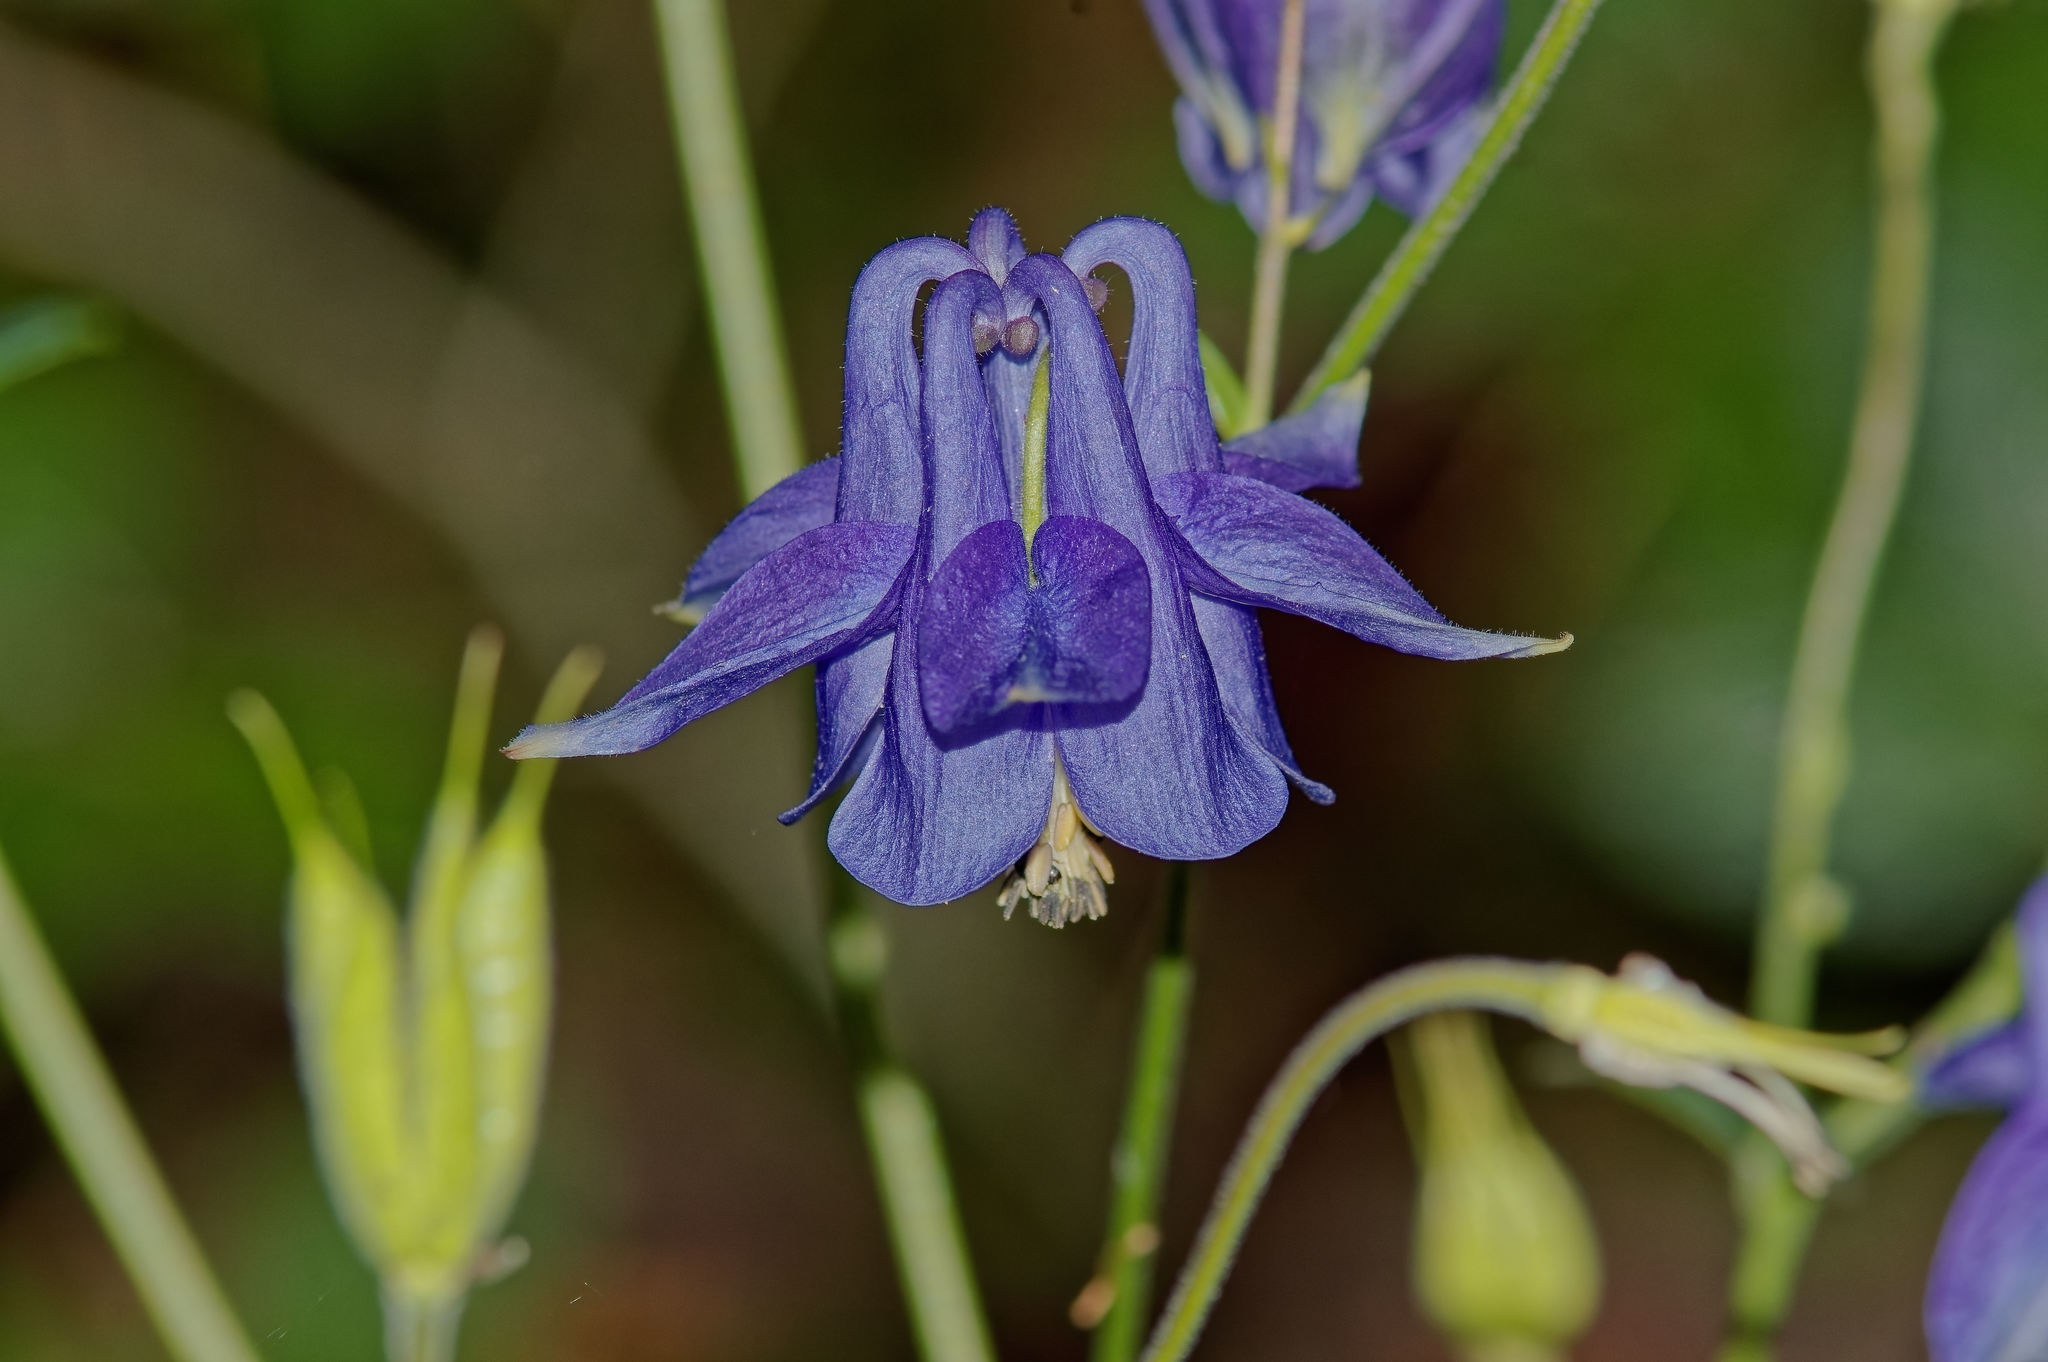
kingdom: Plantae
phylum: Tracheophyta
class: Magnoliopsida
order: Ranunculales
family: Ranunculaceae
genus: Aquilegia
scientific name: Aquilegia vulgaris
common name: Columbine
